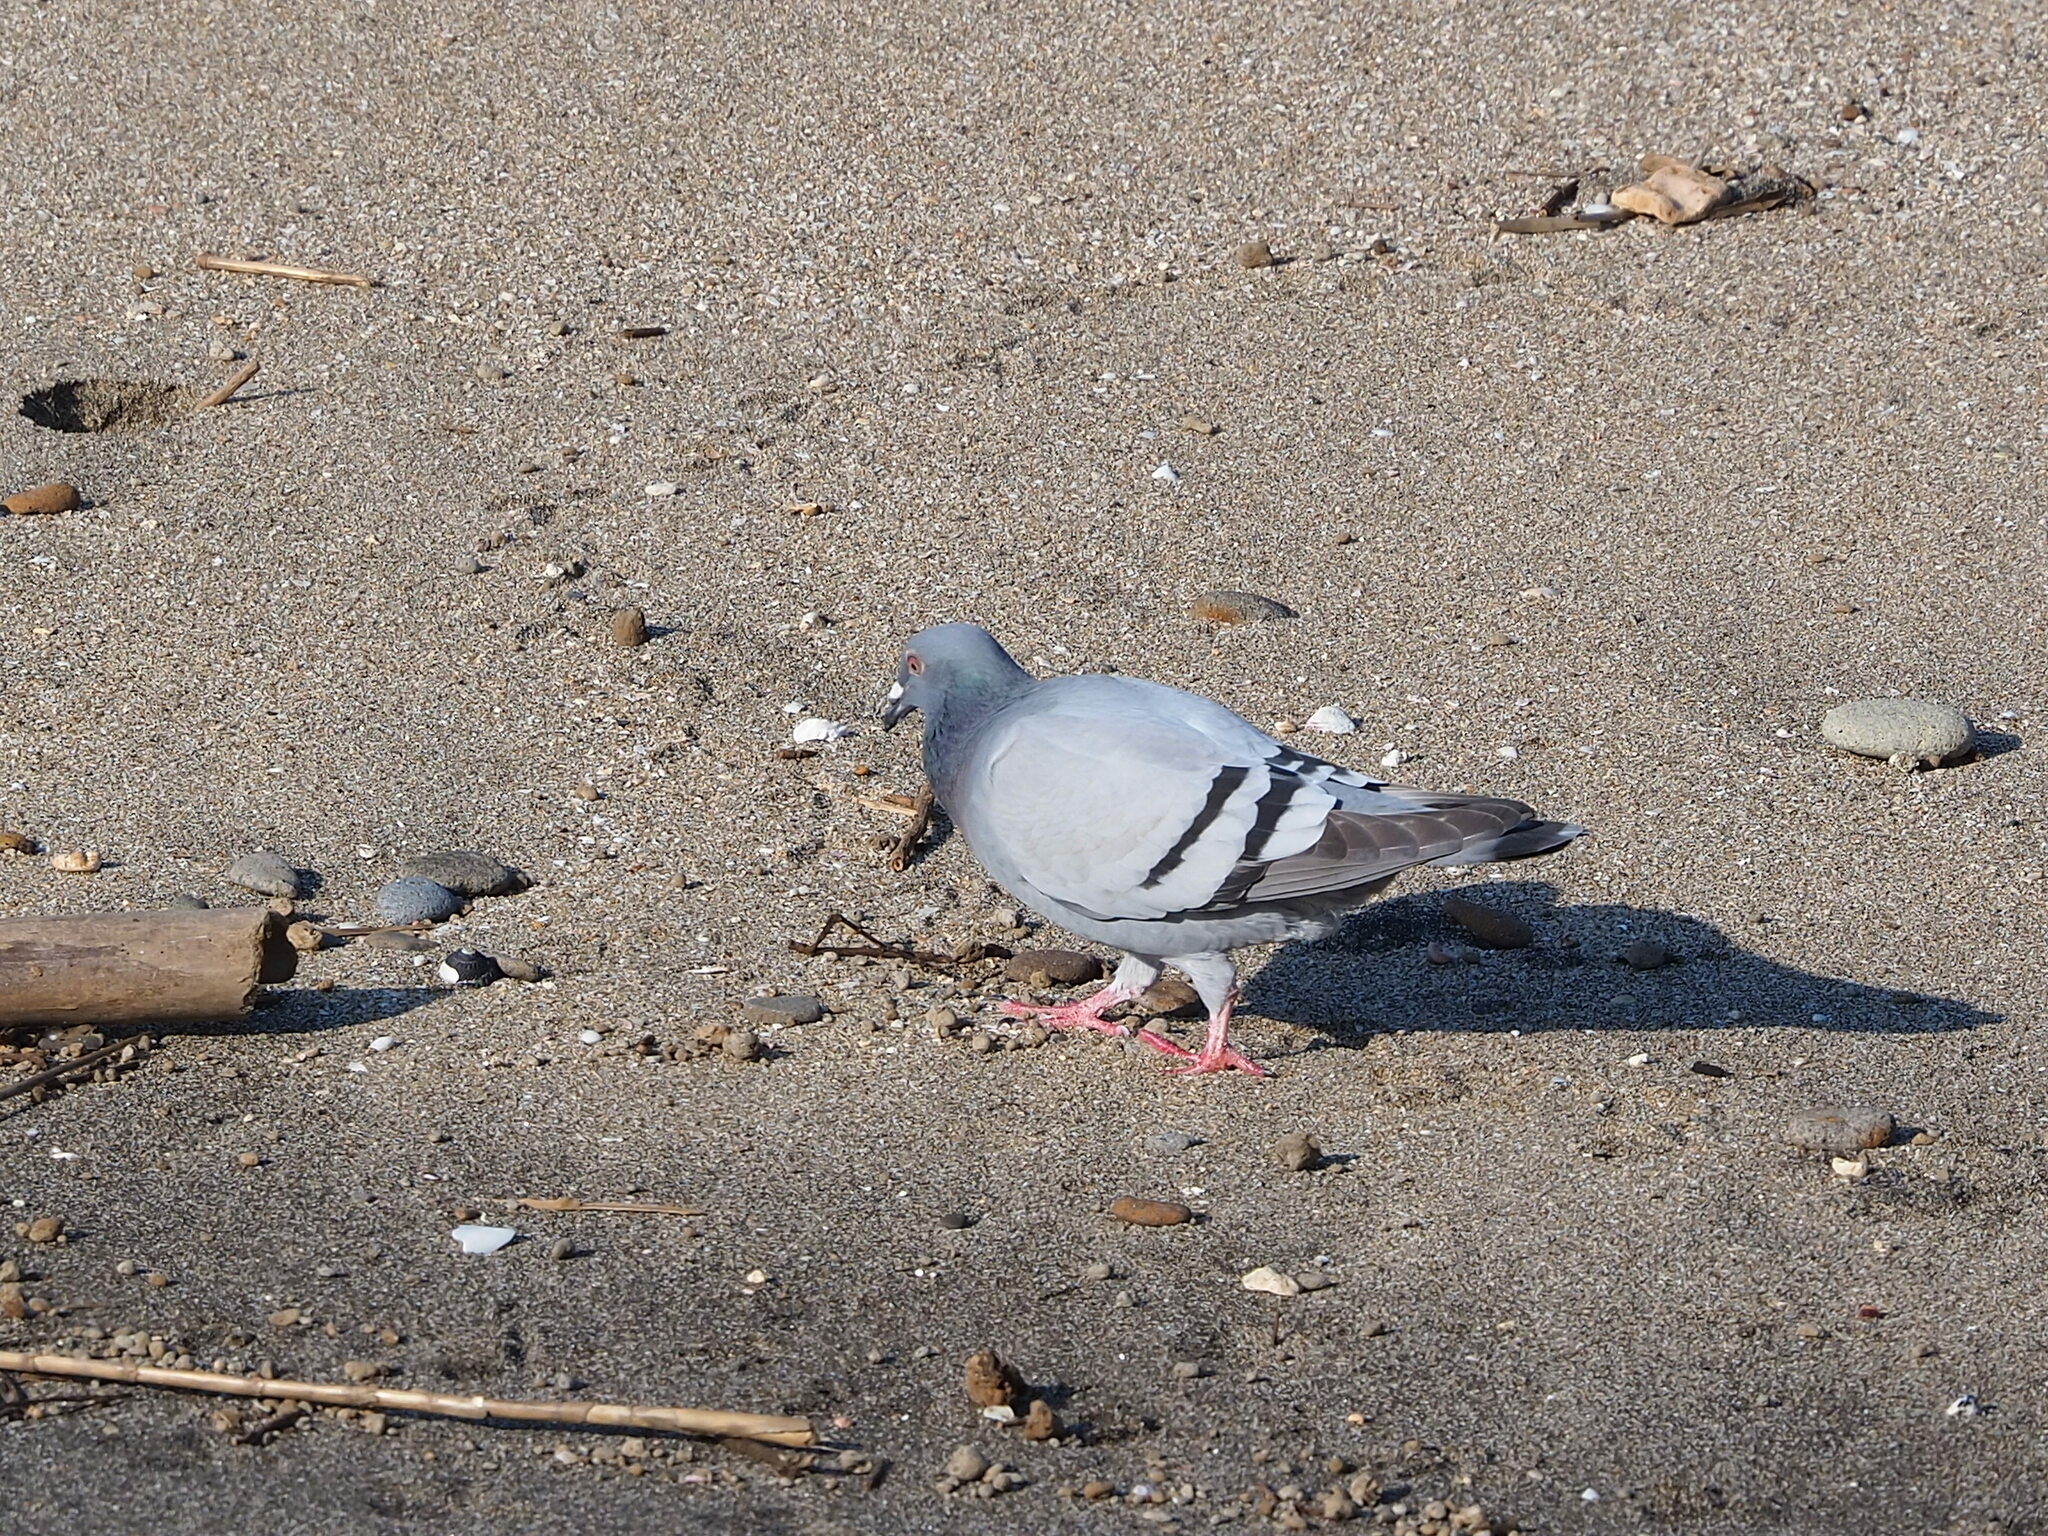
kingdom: Animalia
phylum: Chordata
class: Aves
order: Columbiformes
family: Columbidae
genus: Columba
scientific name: Columba livia
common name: Rock pigeon
